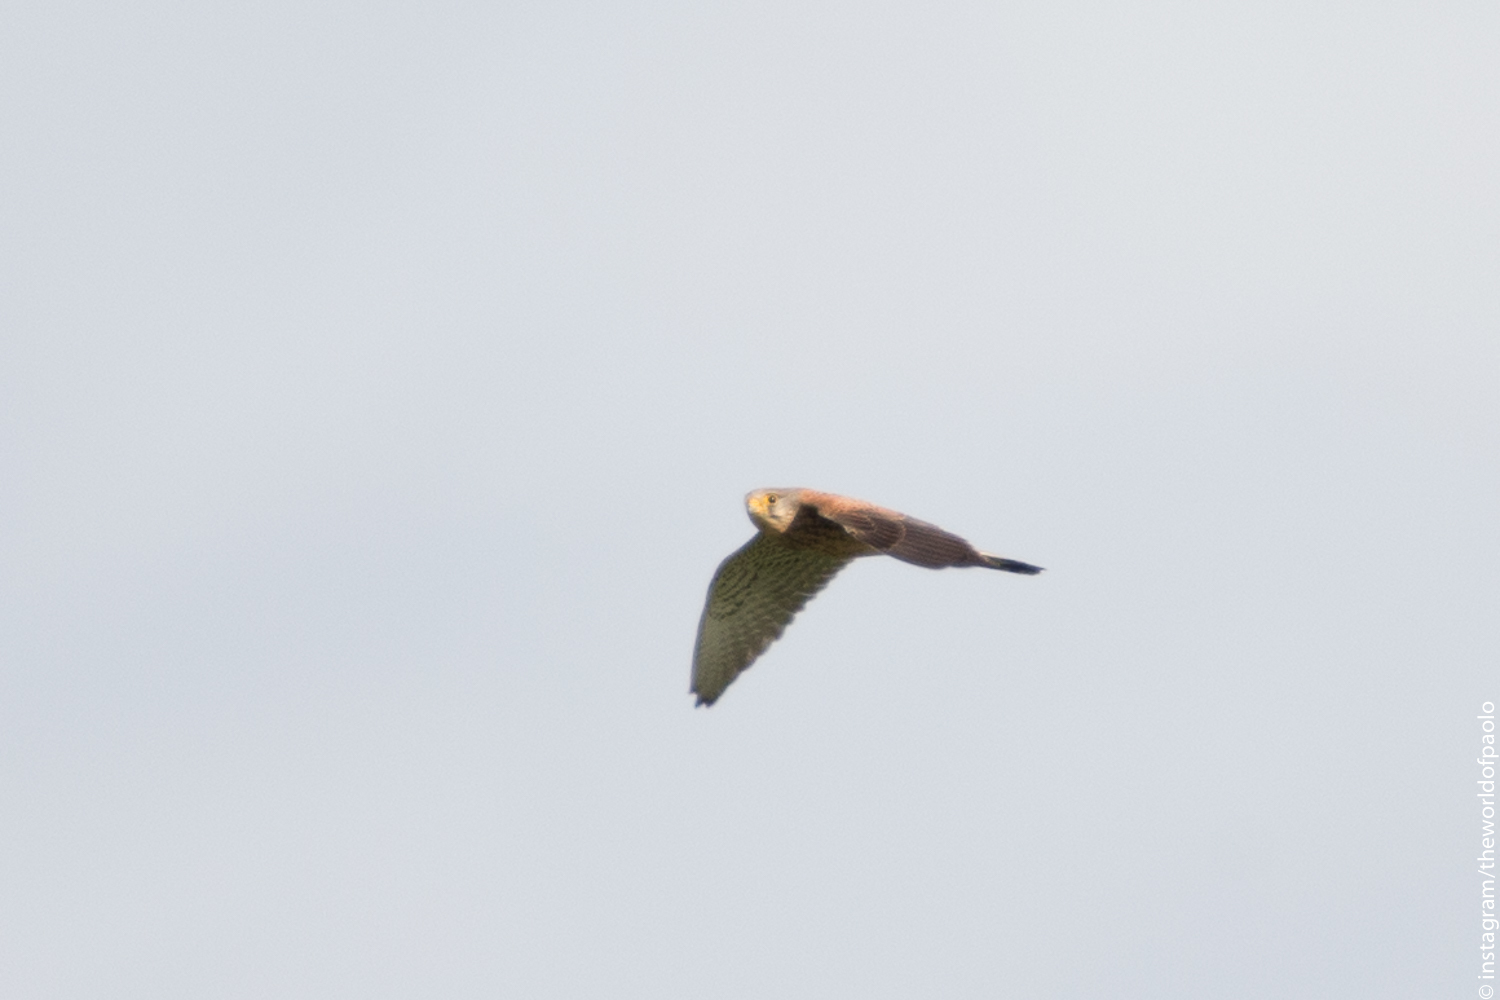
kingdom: Animalia
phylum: Chordata
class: Aves
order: Falconiformes
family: Falconidae
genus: Falco
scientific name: Falco tinnunculus
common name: Common kestrel
